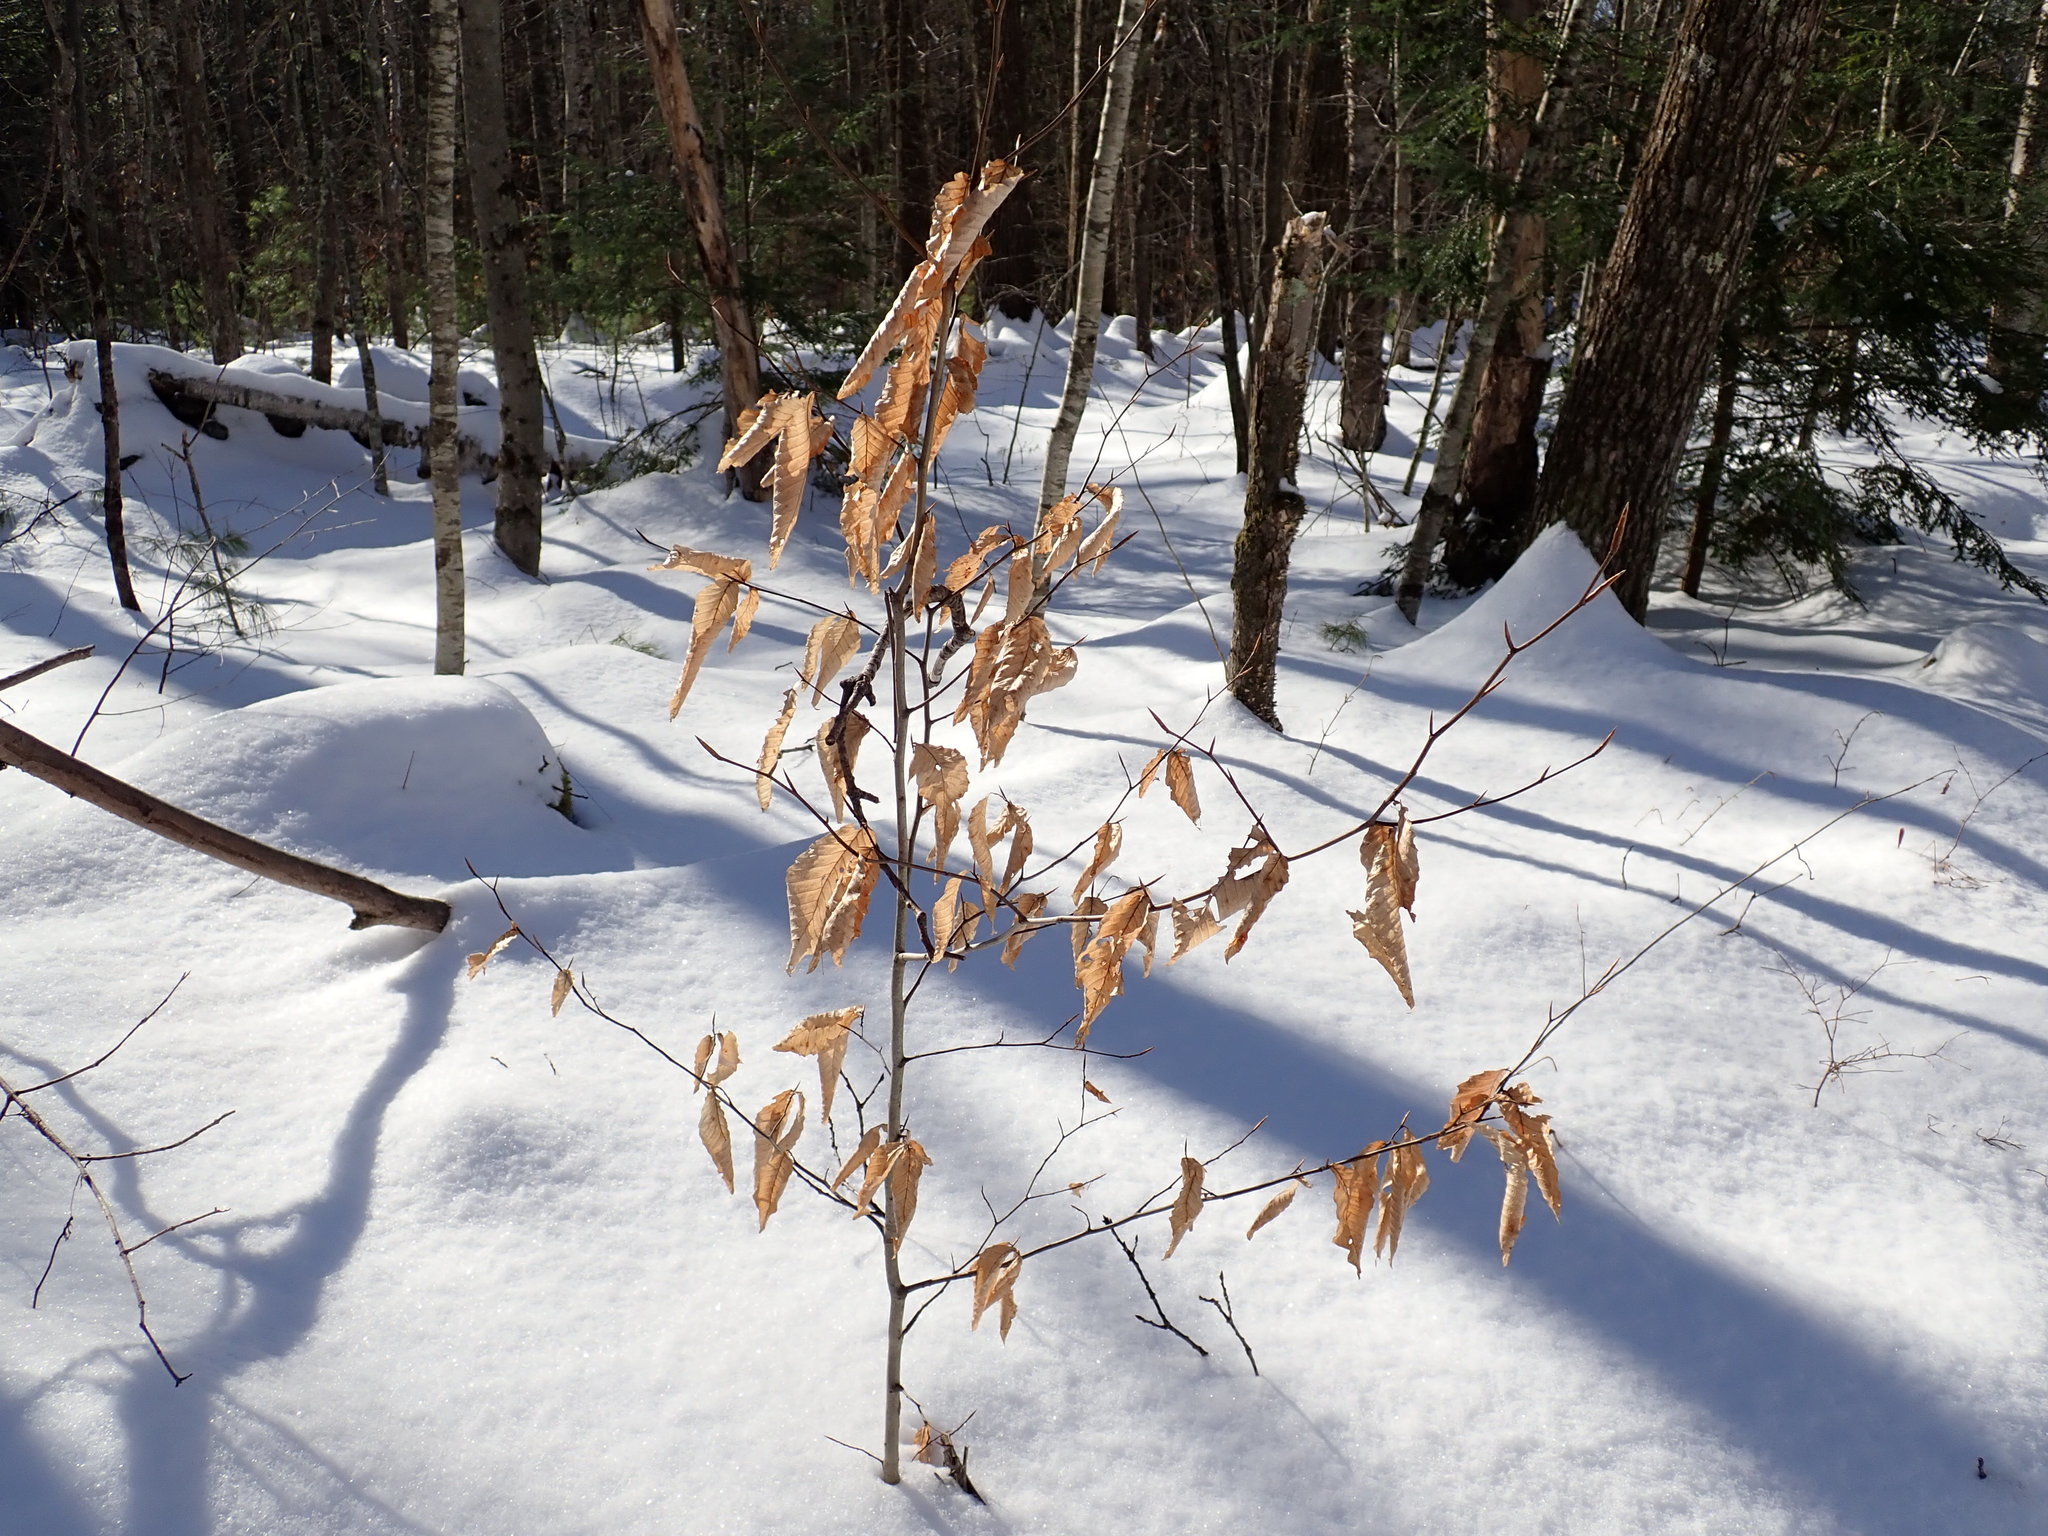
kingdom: Plantae
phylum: Tracheophyta
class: Magnoliopsida
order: Fagales
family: Fagaceae
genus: Fagus
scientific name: Fagus grandifolia
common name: American beech
